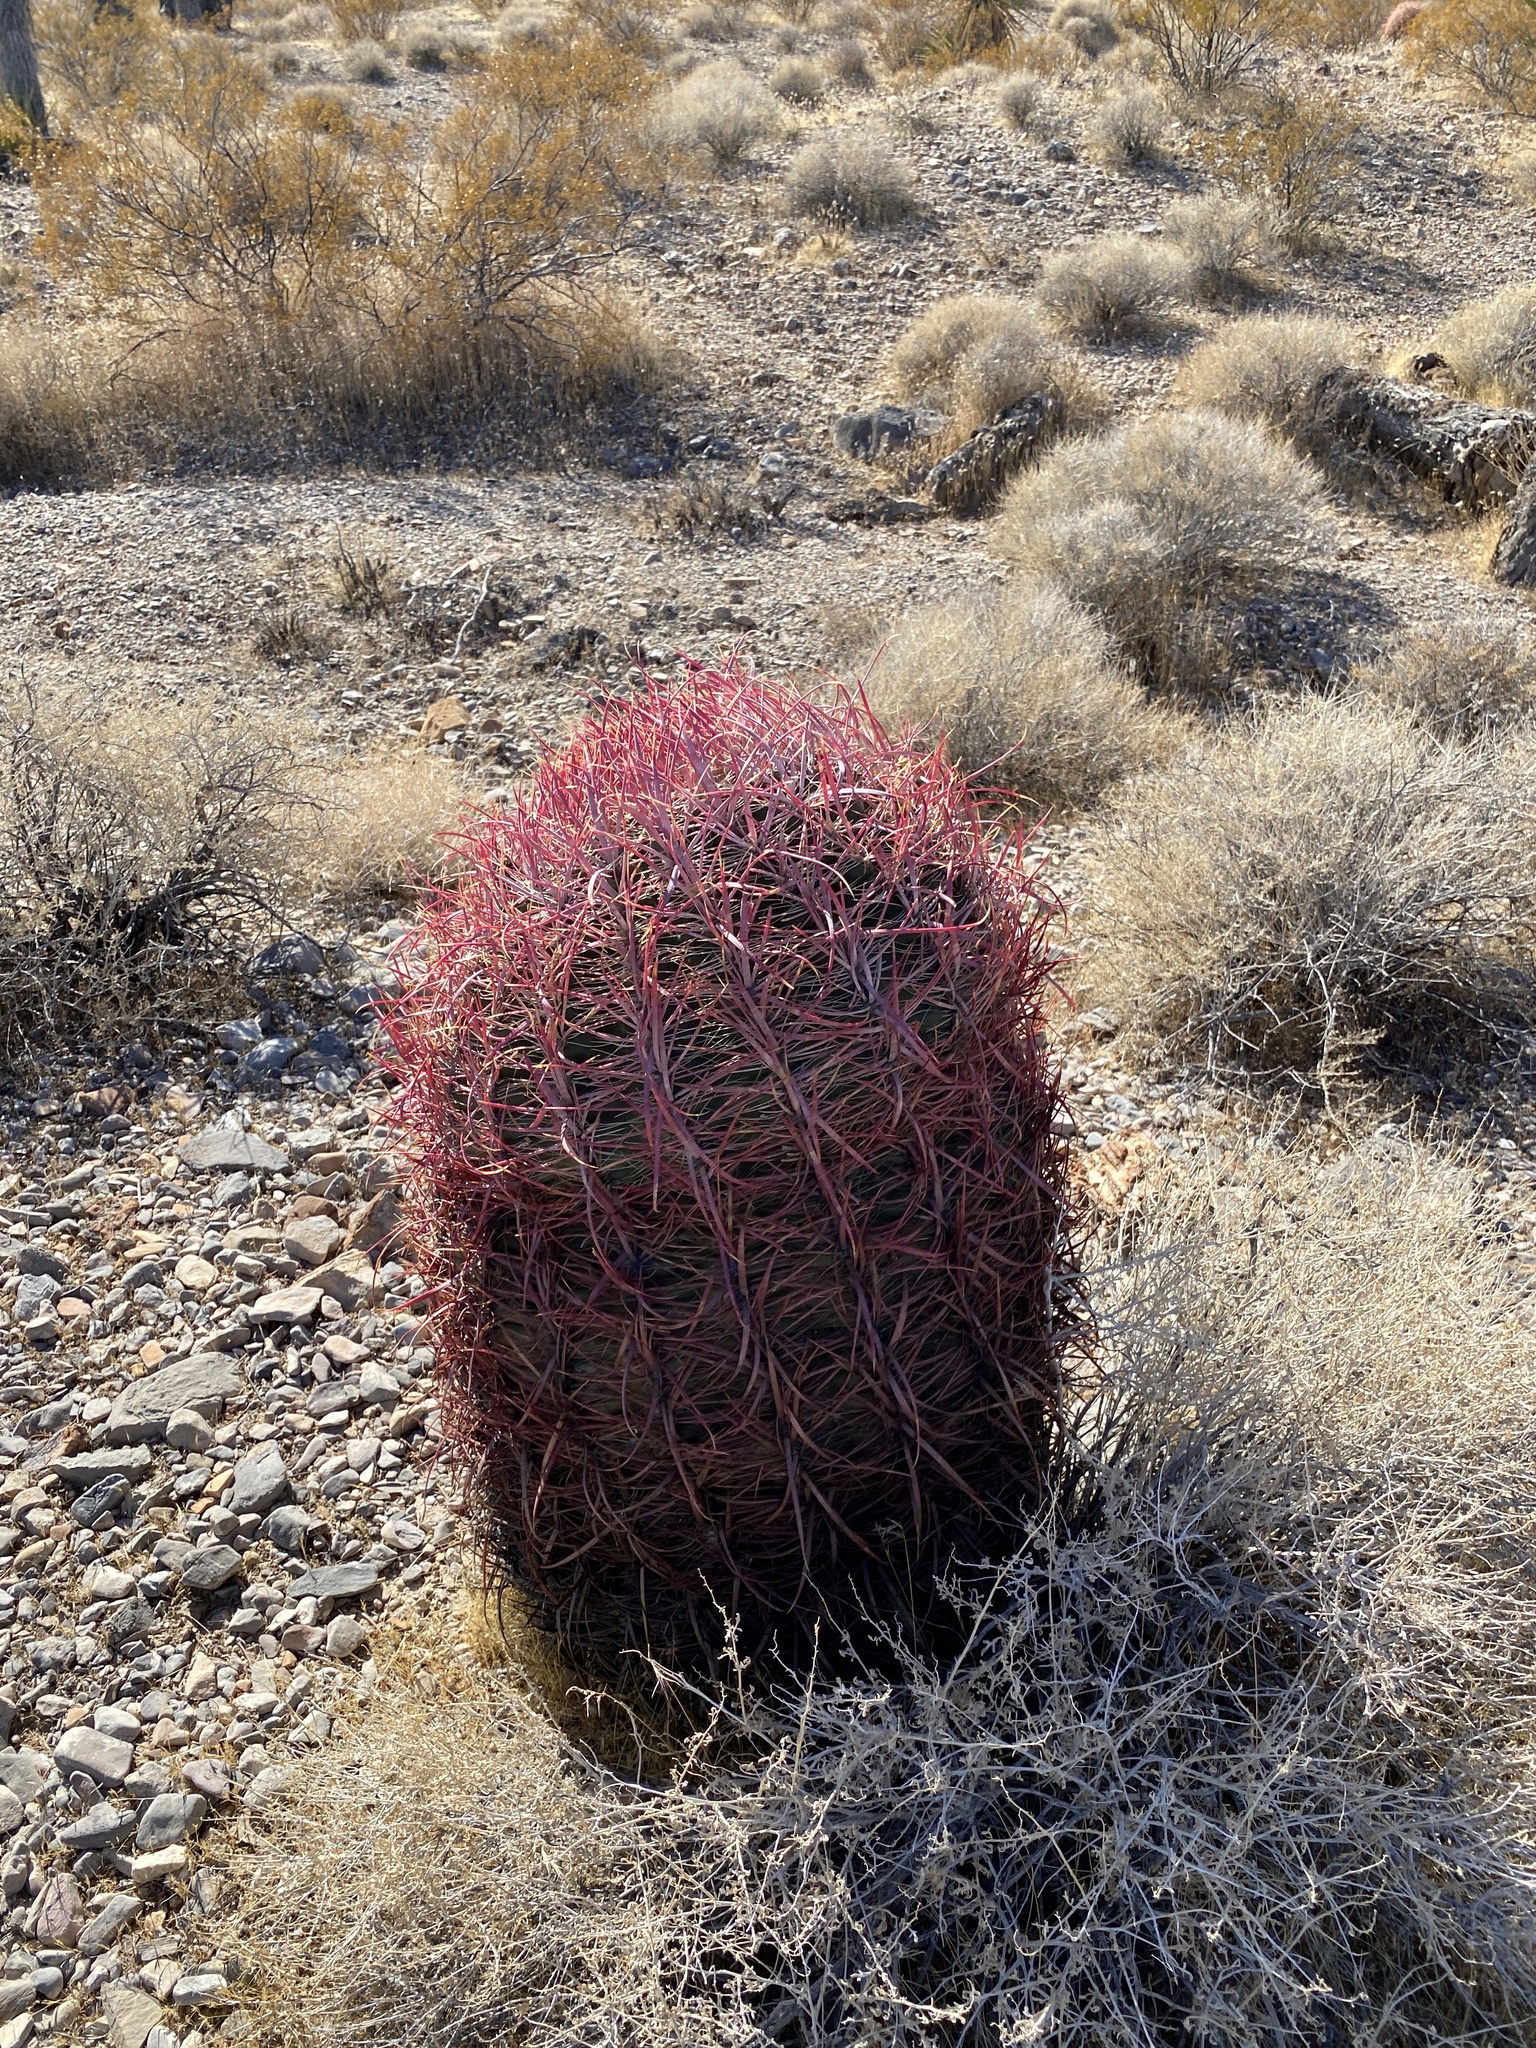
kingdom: Plantae
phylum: Tracheophyta
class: Magnoliopsida
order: Caryophyllales
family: Cactaceae
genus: Ferocactus
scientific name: Ferocactus cylindraceus
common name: California barrel cactus
